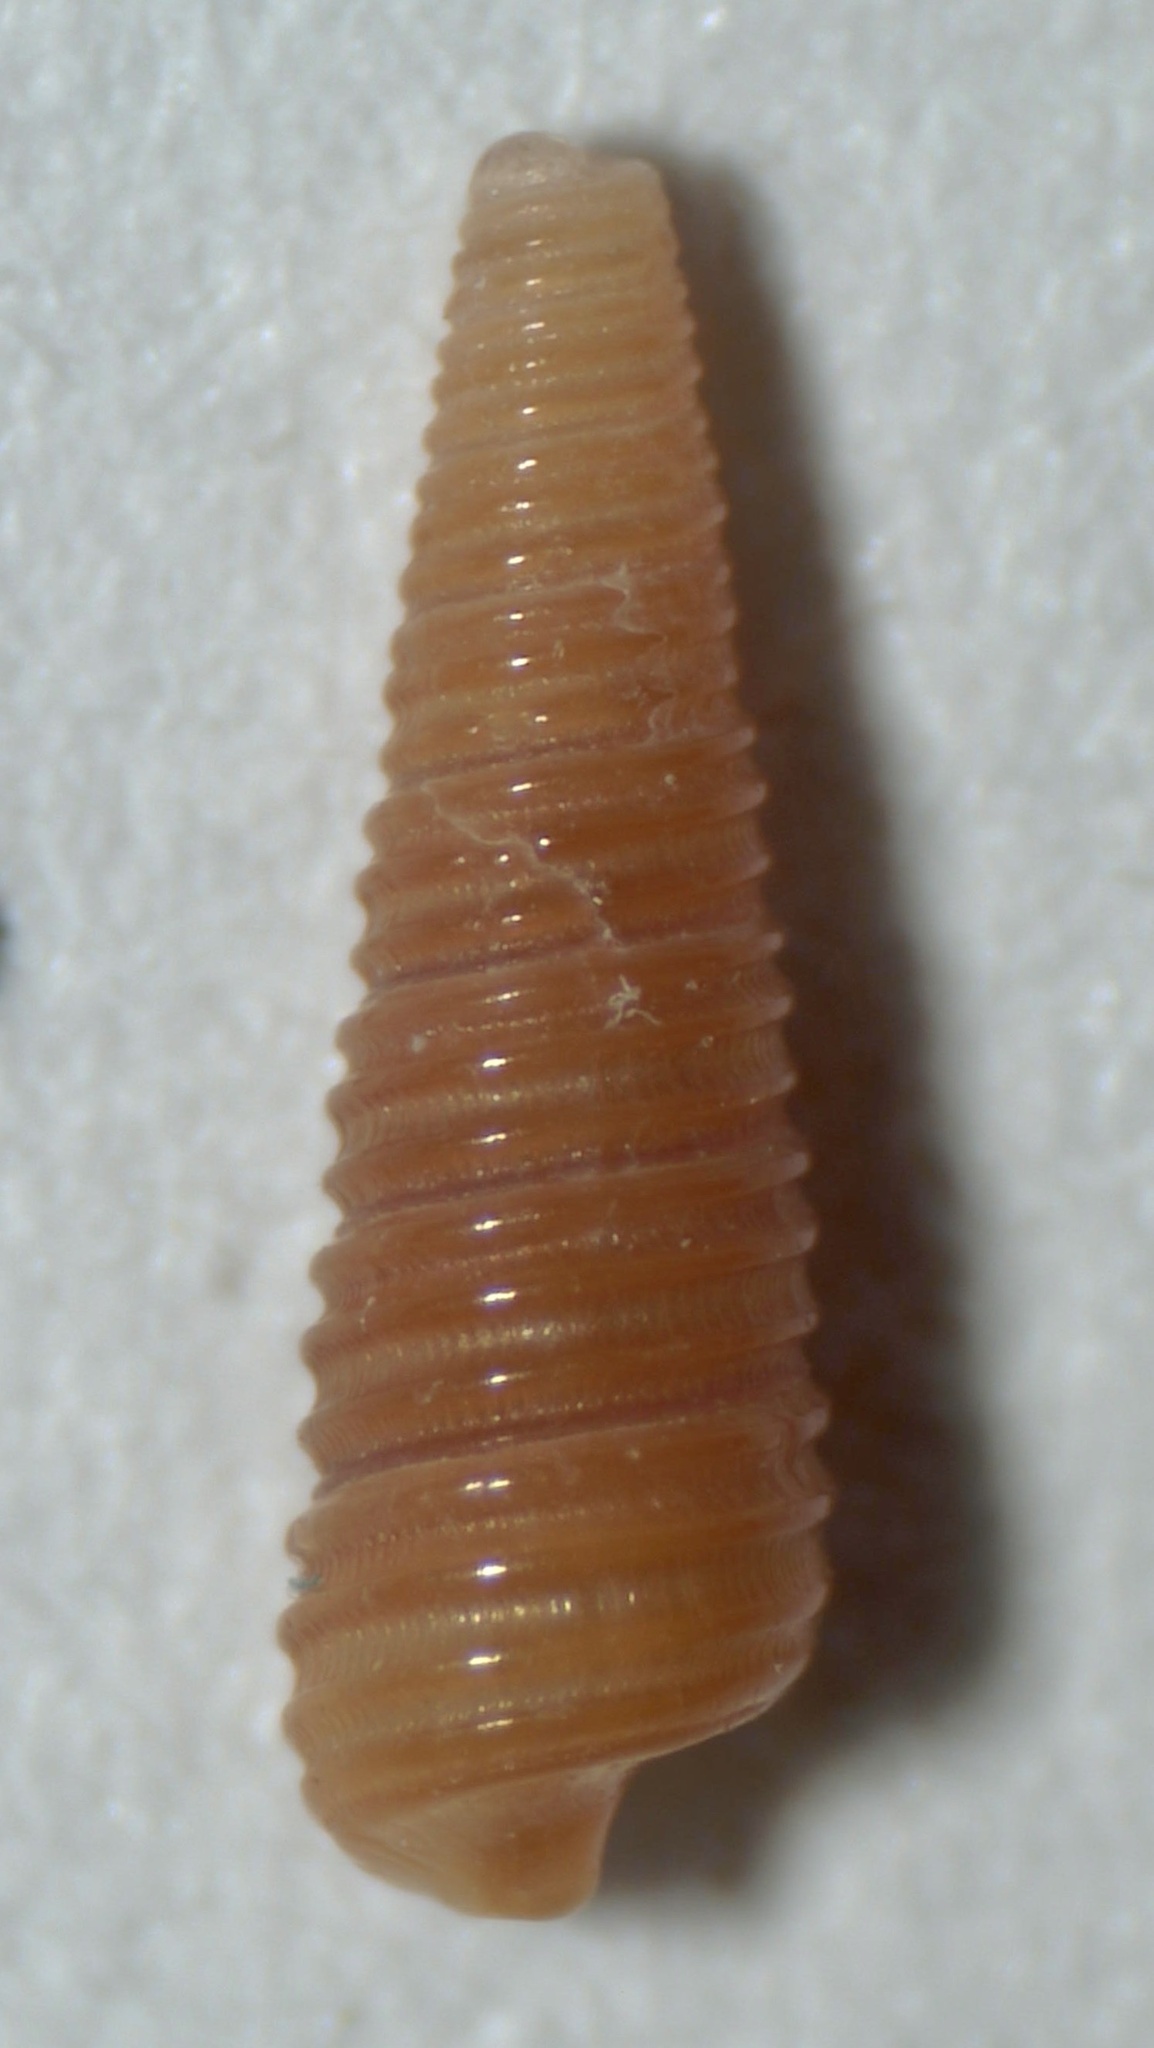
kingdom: Animalia
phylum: Mollusca
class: Gastropoda
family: Cerithiopsidae
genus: Seila
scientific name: Seila adamsii
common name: Adam's miniature cerith
